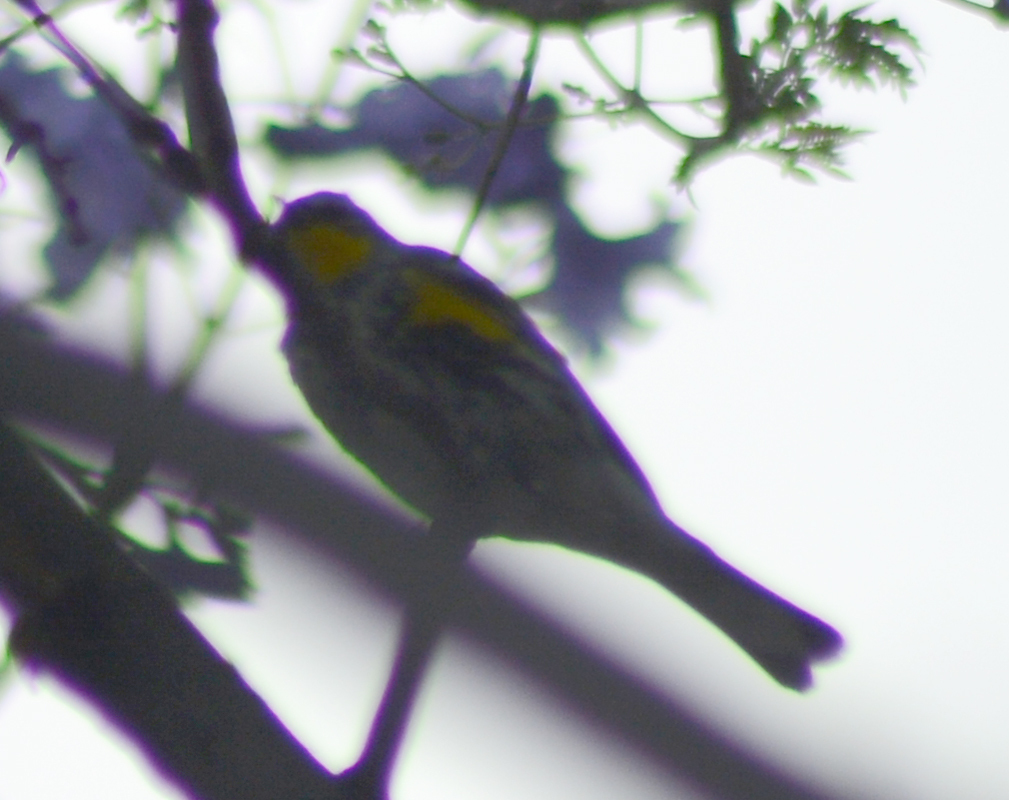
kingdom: Animalia
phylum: Chordata
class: Aves
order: Passeriformes
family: Parulidae
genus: Setophaga
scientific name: Setophaga coronata
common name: Myrtle warbler
